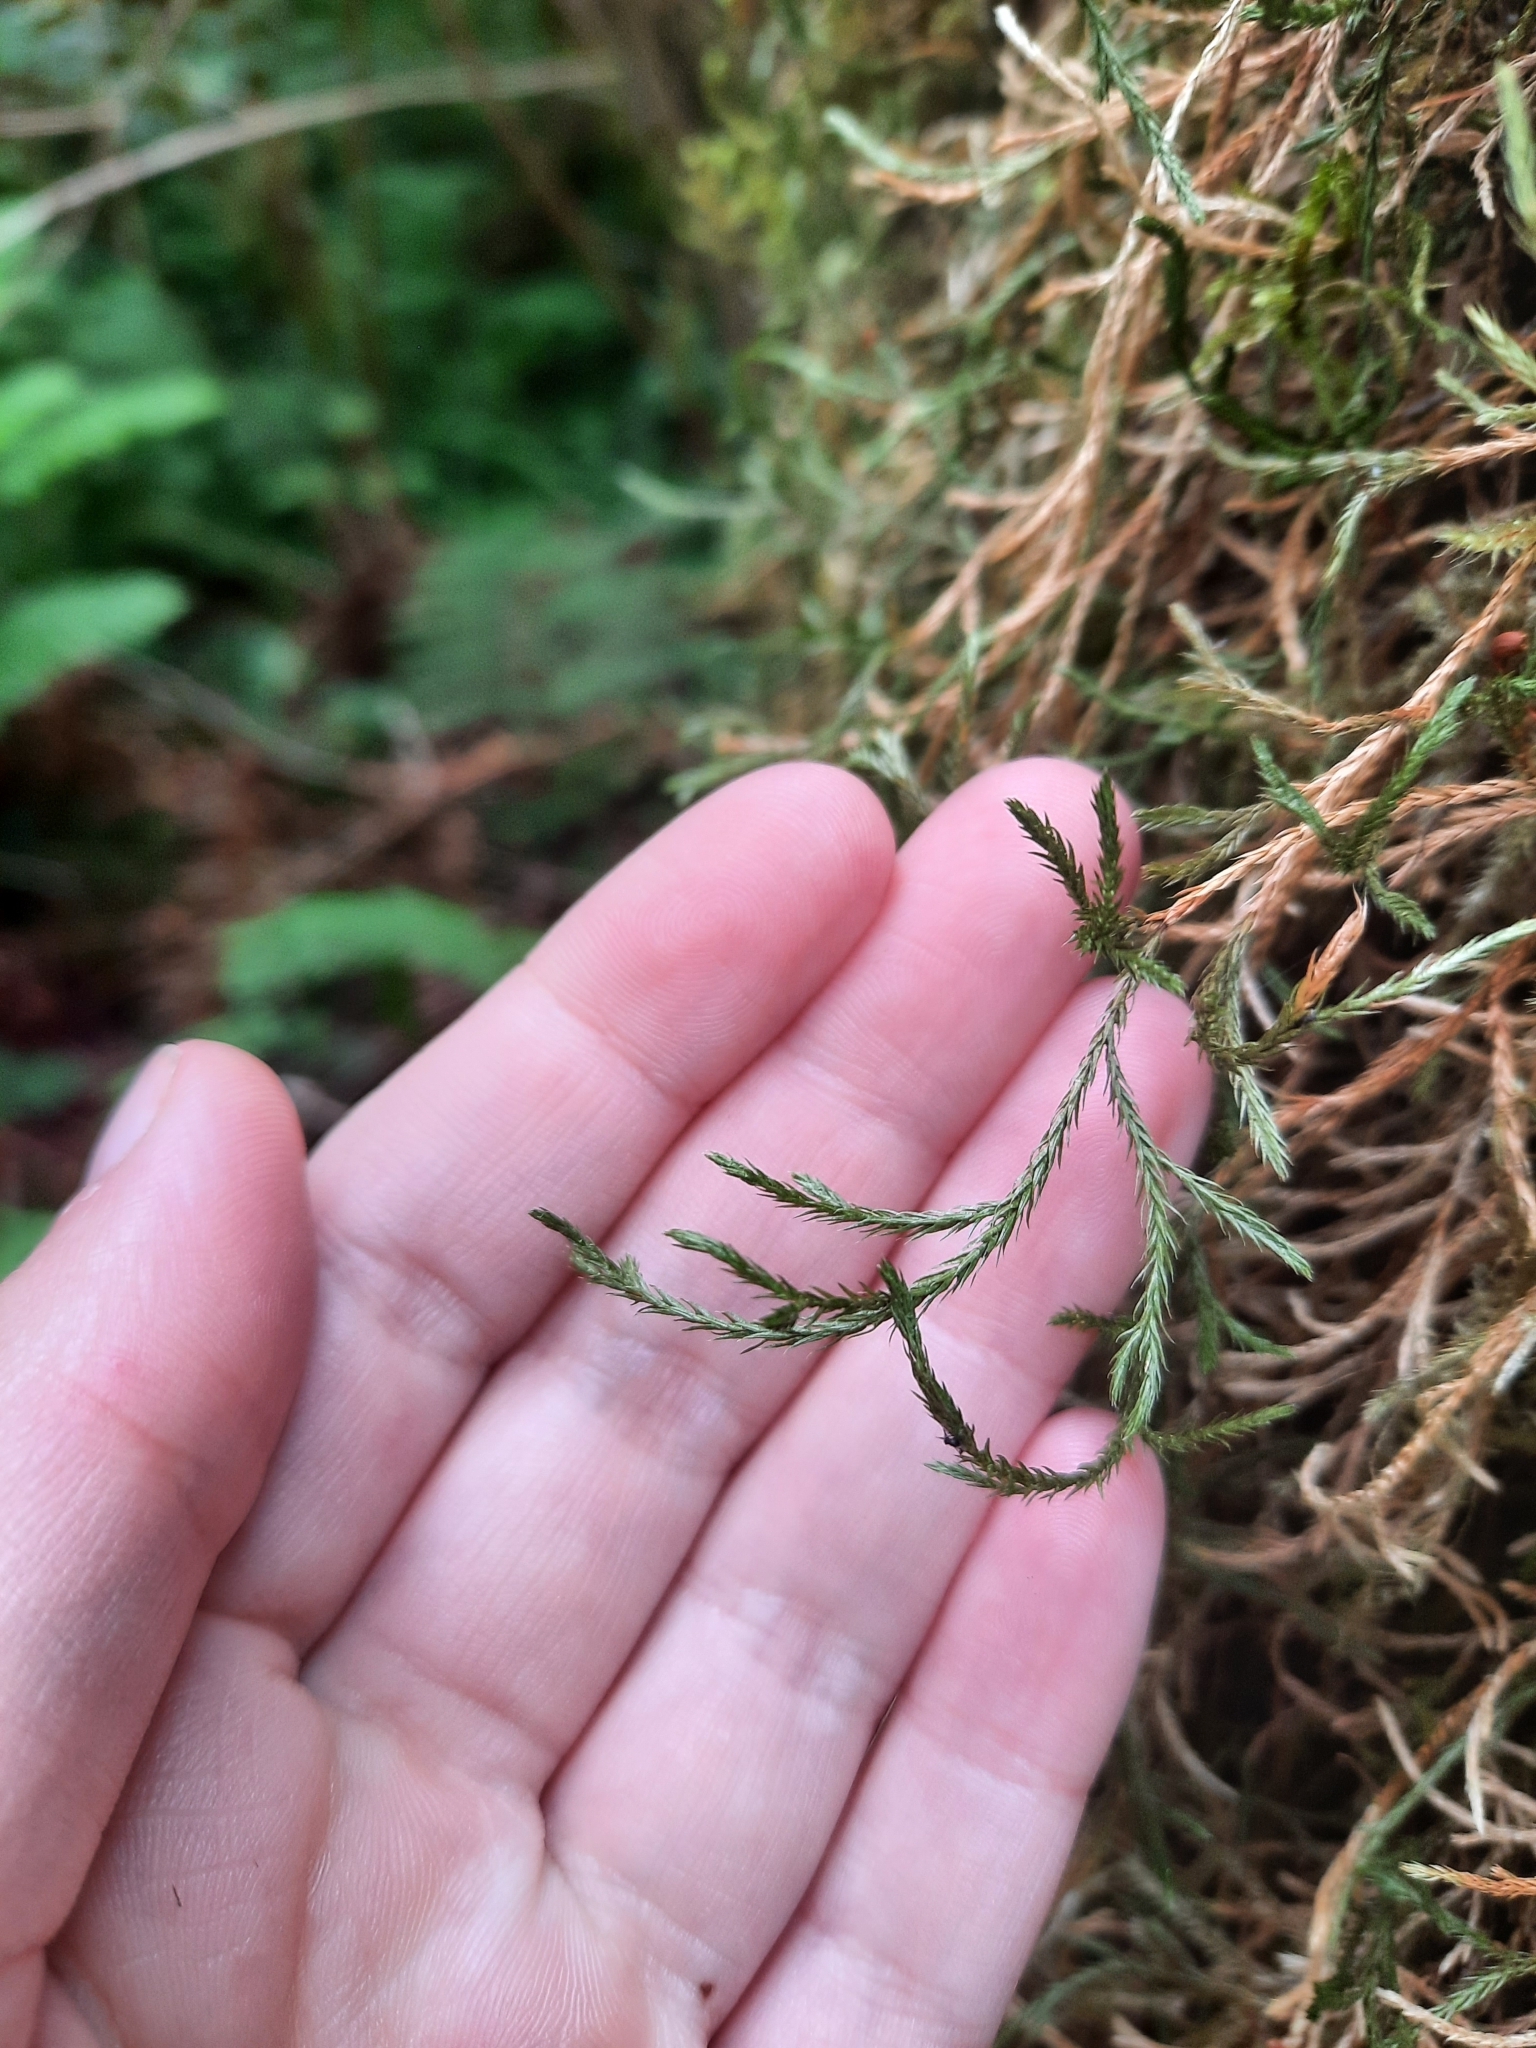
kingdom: Plantae
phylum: Tracheophyta
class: Lycopodiopsida
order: Selaginellales
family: Selaginellaceae
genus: Selaginella
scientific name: Selaginella oregana
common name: Oregon selaginella
